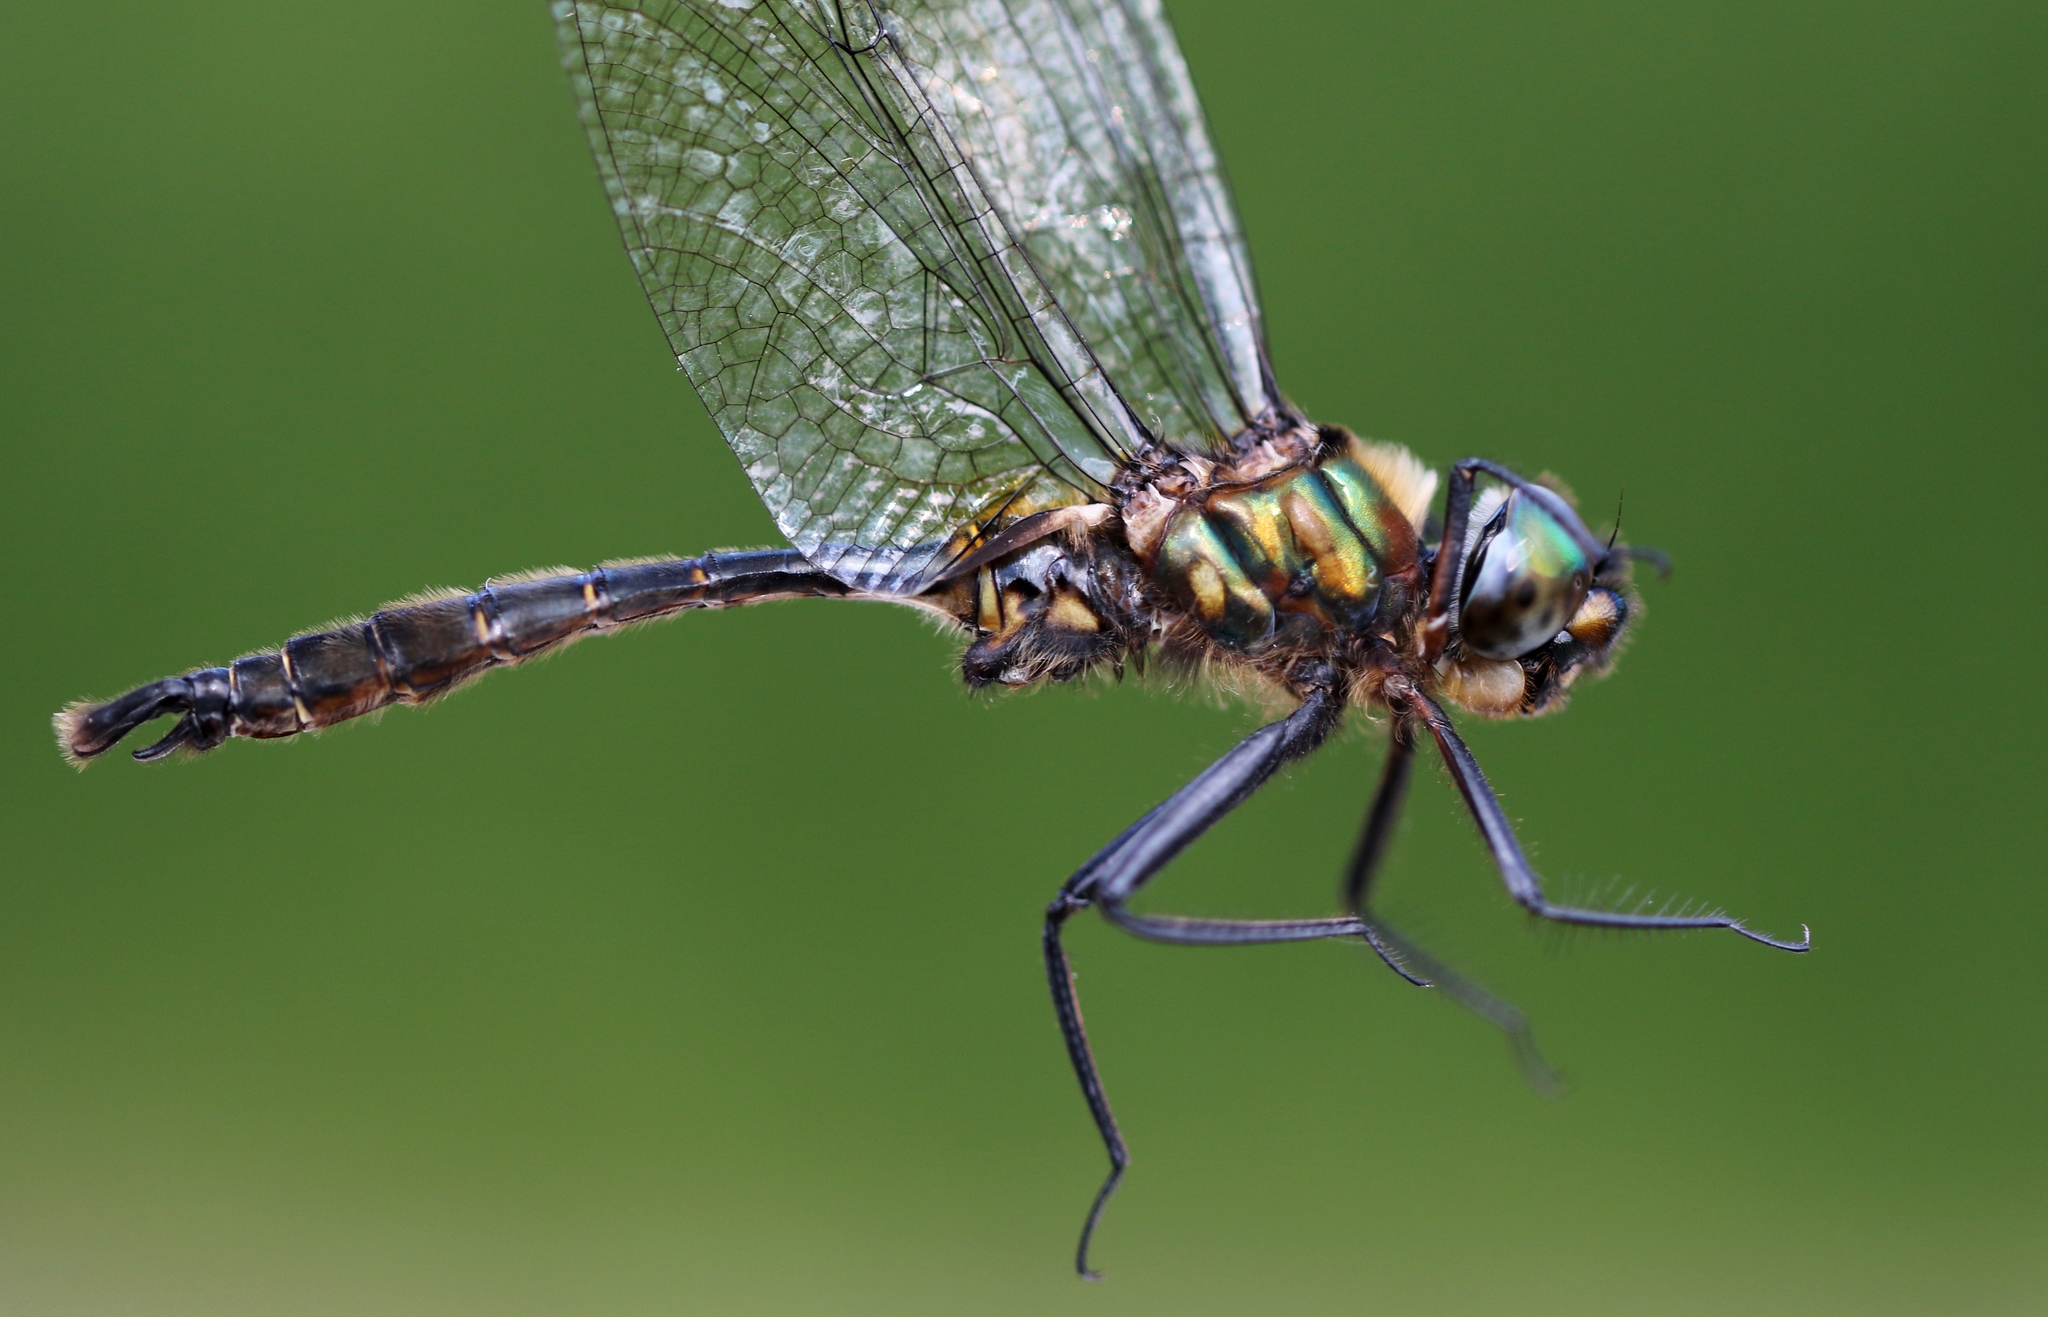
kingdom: Animalia
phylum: Arthropoda
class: Insecta
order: Odonata
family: Corduliidae
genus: Somatochlora
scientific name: Somatochlora walshii
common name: Brush-tipped emerald
